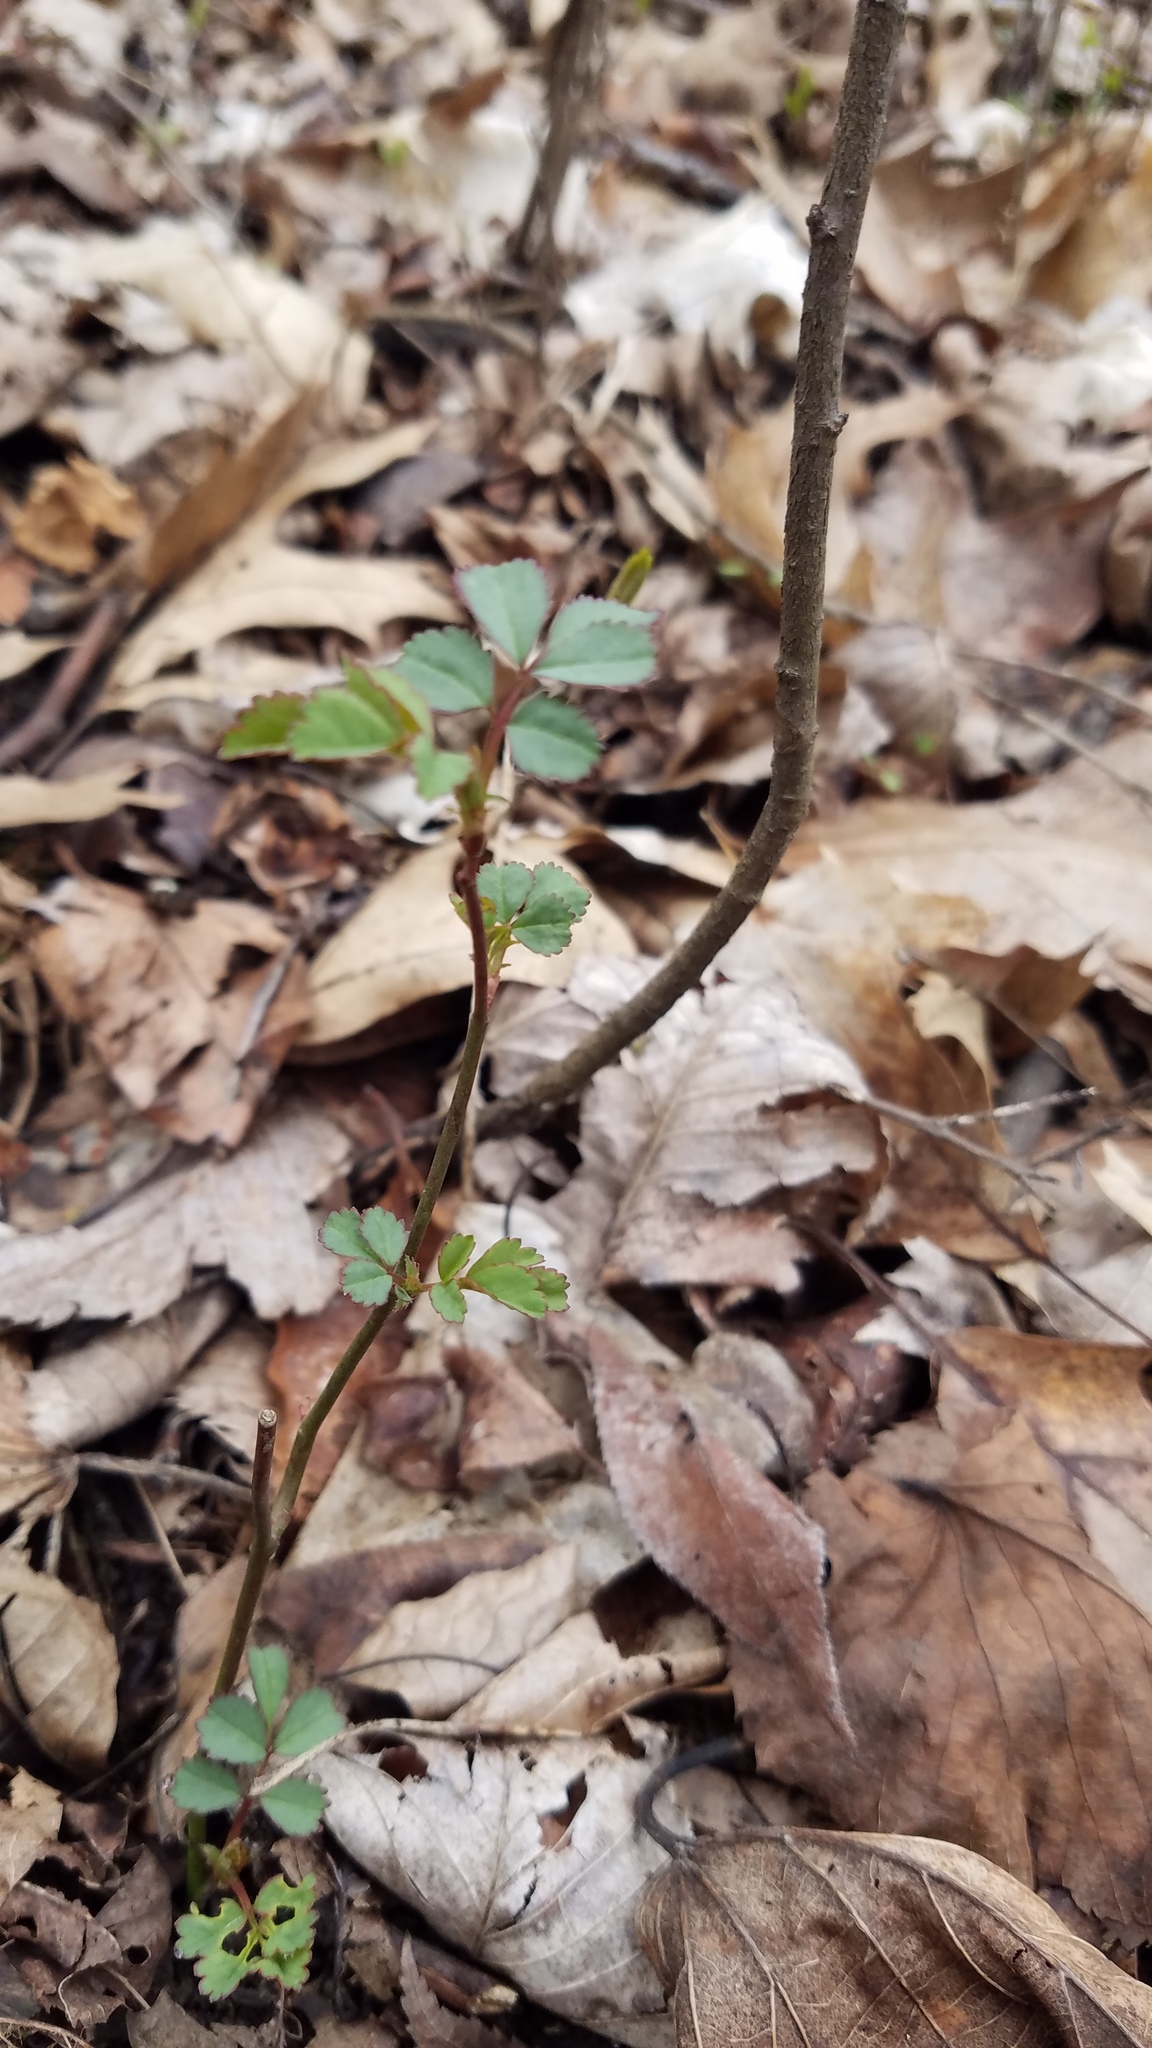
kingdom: Plantae
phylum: Tracheophyta
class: Magnoliopsida
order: Rosales
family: Rosaceae
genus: Rosa
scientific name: Rosa multiflora
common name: Multiflora rose
